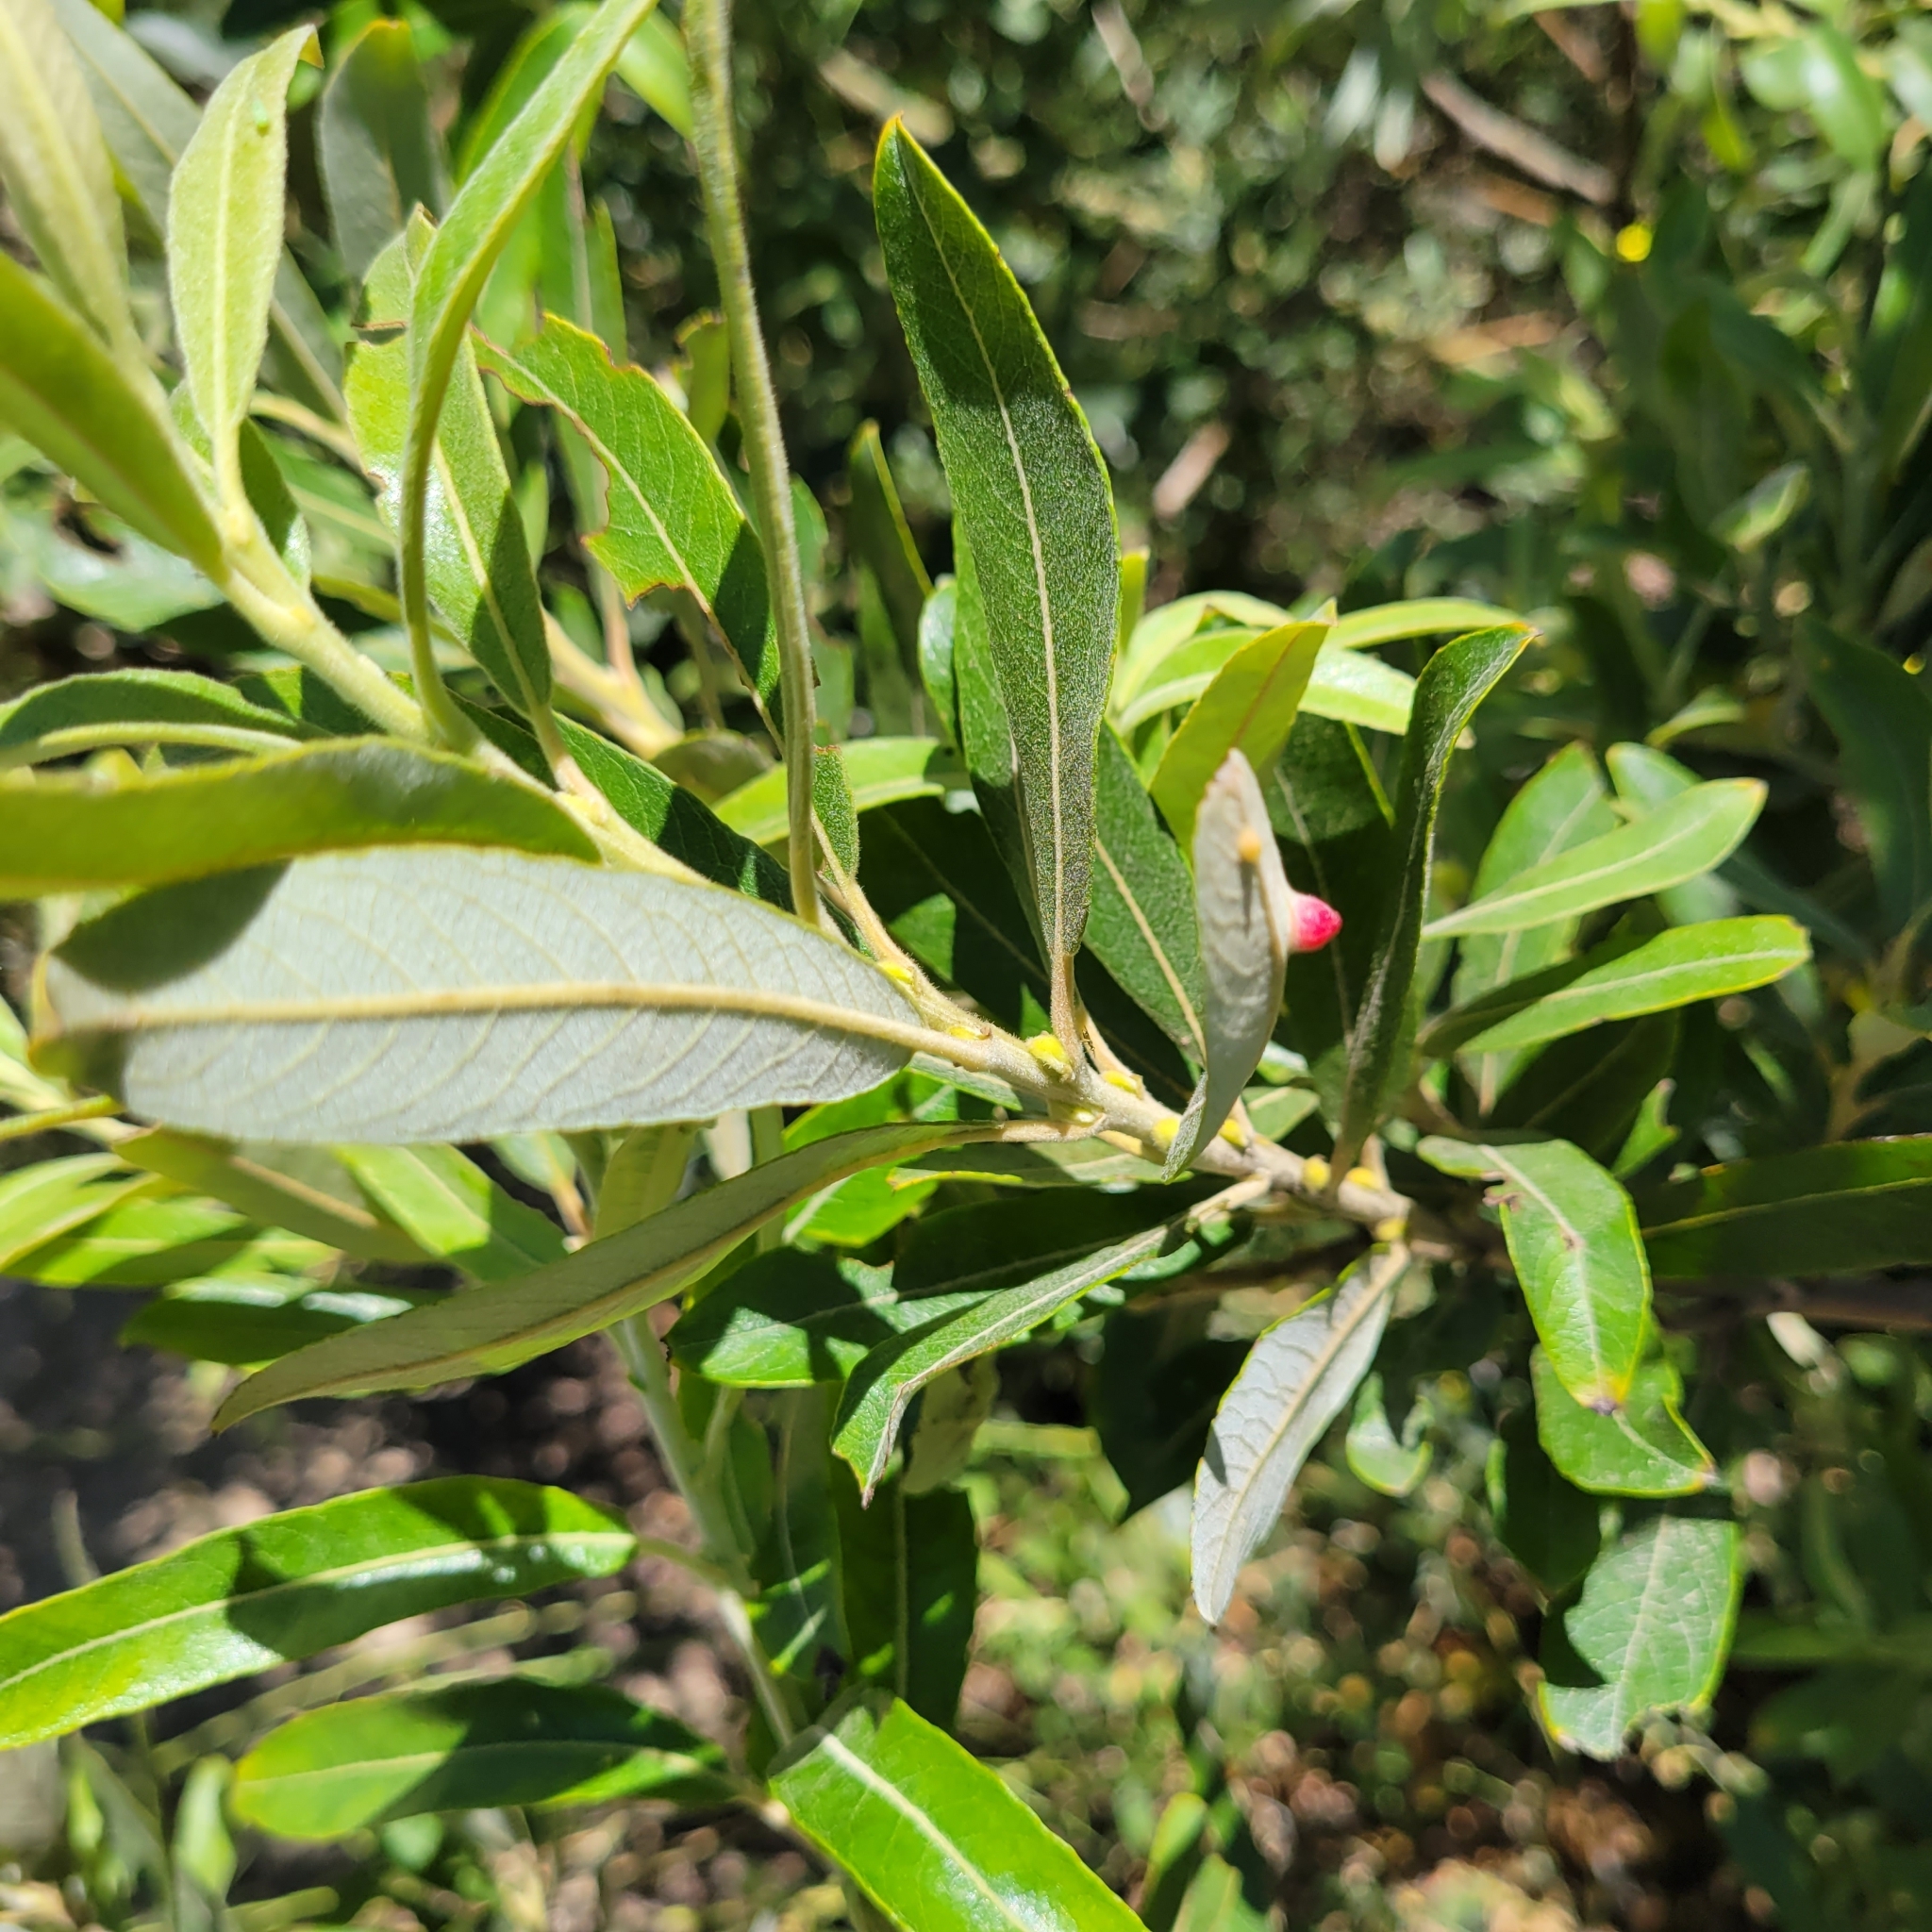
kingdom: Plantae
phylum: Tracheophyta
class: Magnoliopsida
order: Malpighiales
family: Salicaceae
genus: Salix
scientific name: Salix lasiolepis
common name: Arroyo willow
